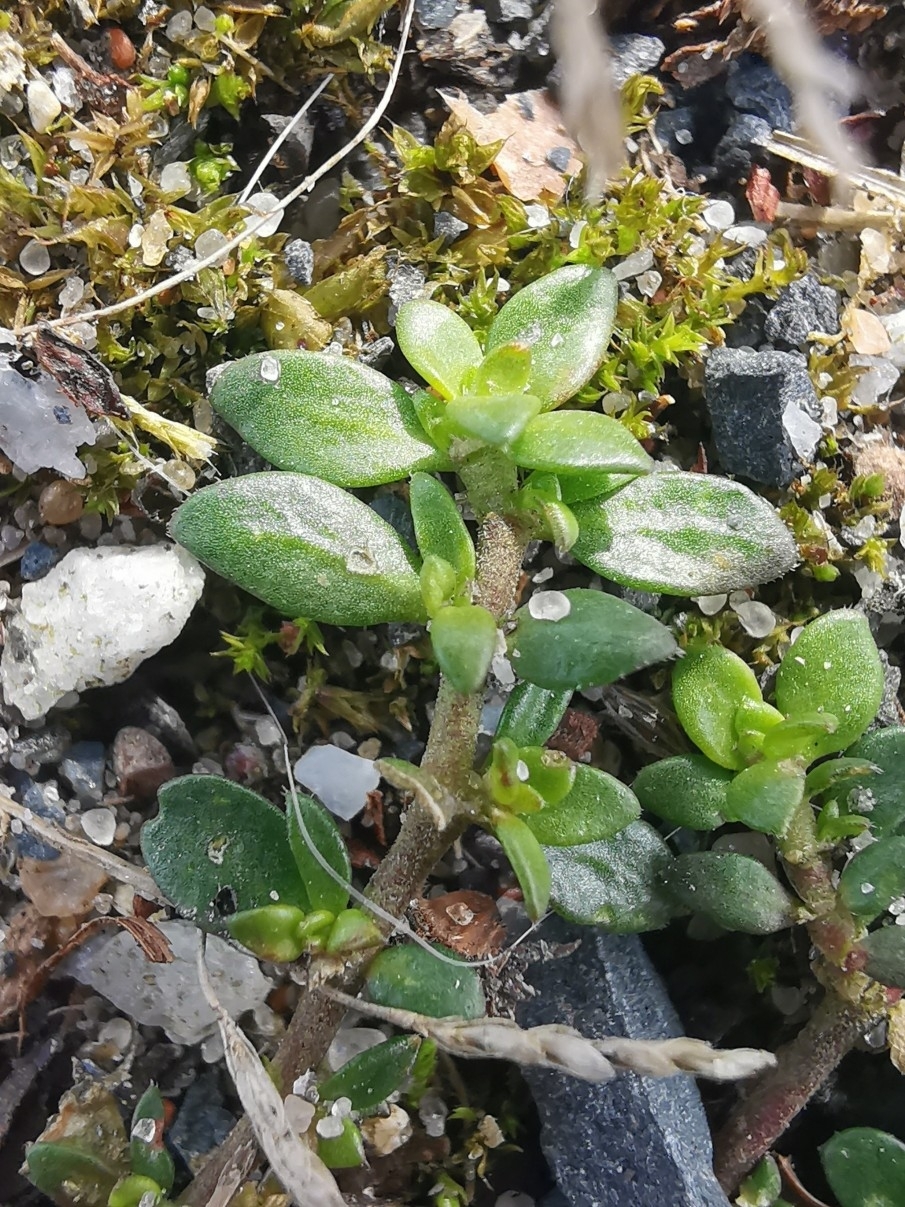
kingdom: Plantae
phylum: Tracheophyta
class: Magnoliopsida
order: Caryophyllales
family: Caryophyllaceae
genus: Herniaria
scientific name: Herniaria glabra
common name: Smooth rupturewort
